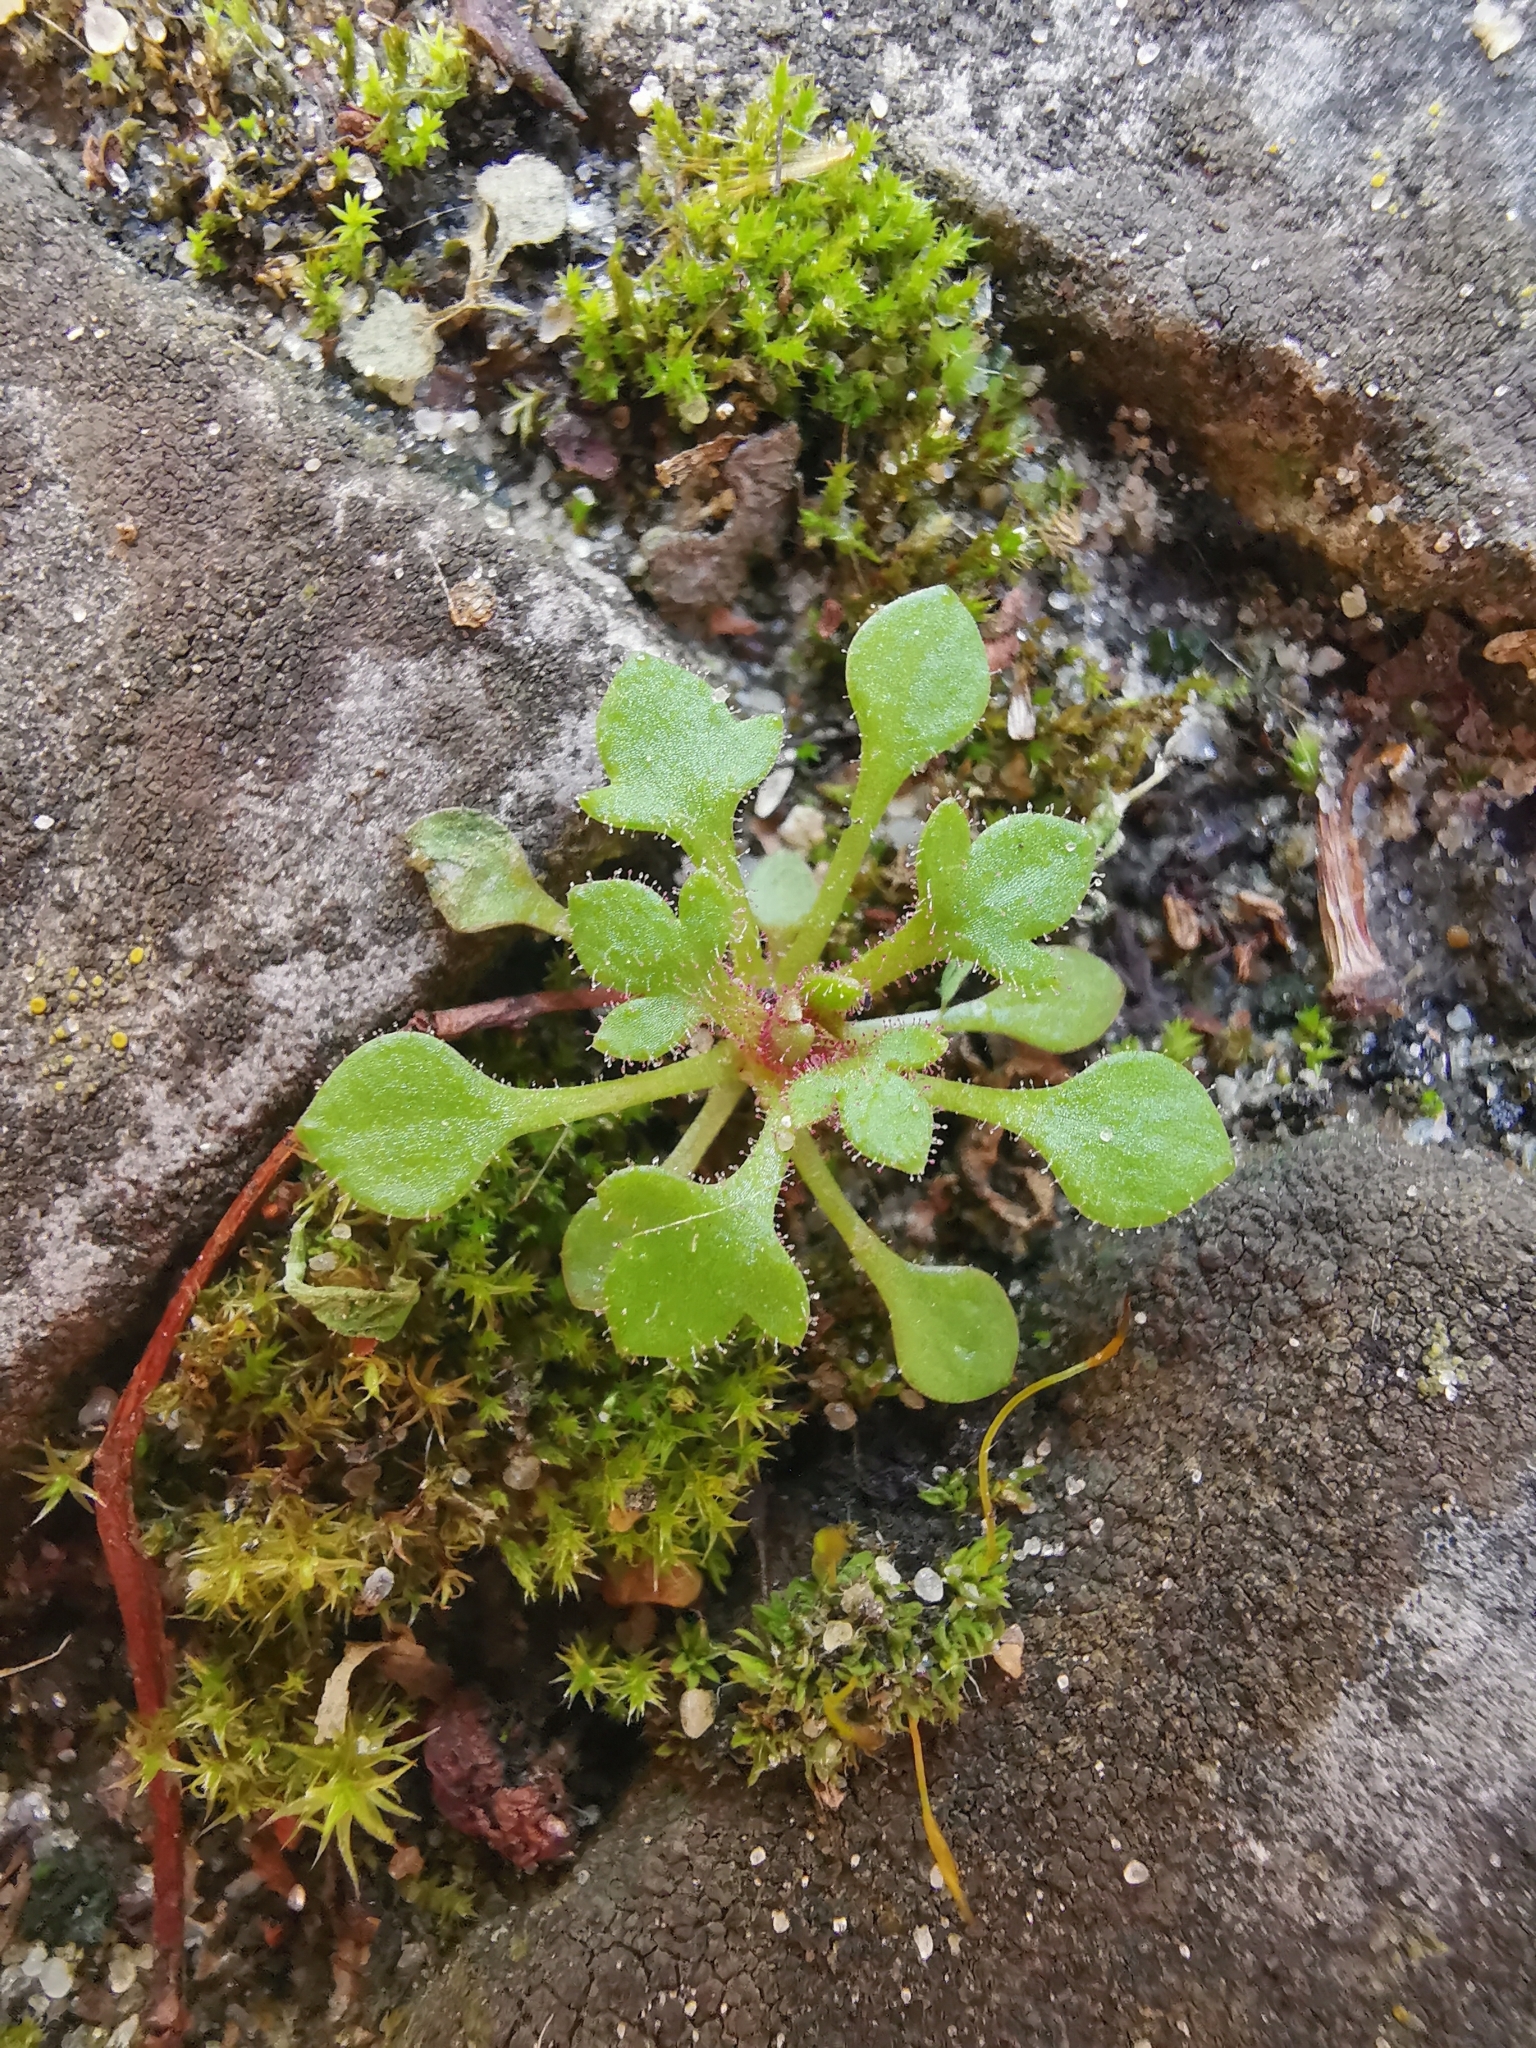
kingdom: Plantae
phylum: Tracheophyta
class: Magnoliopsida
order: Saxifragales
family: Saxifragaceae
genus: Saxifraga
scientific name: Saxifraga tridactylites
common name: Rue-leaved saxifrage
